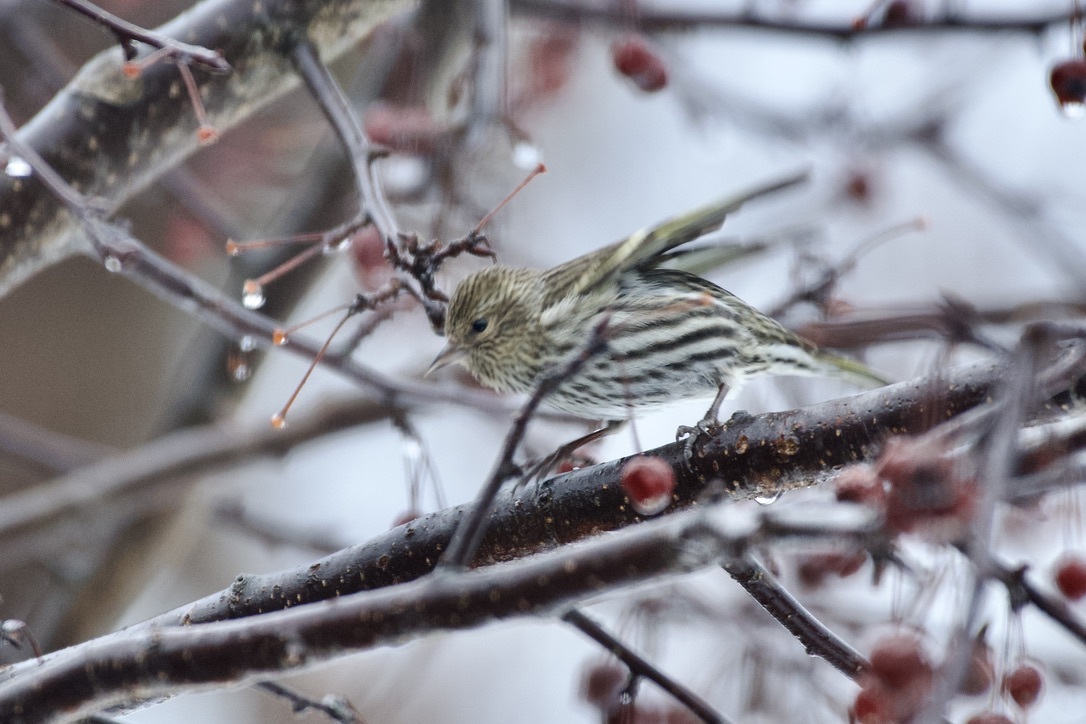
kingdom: Animalia
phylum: Chordata
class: Aves
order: Passeriformes
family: Fringillidae
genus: Spinus
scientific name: Spinus pinus
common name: Pine siskin
